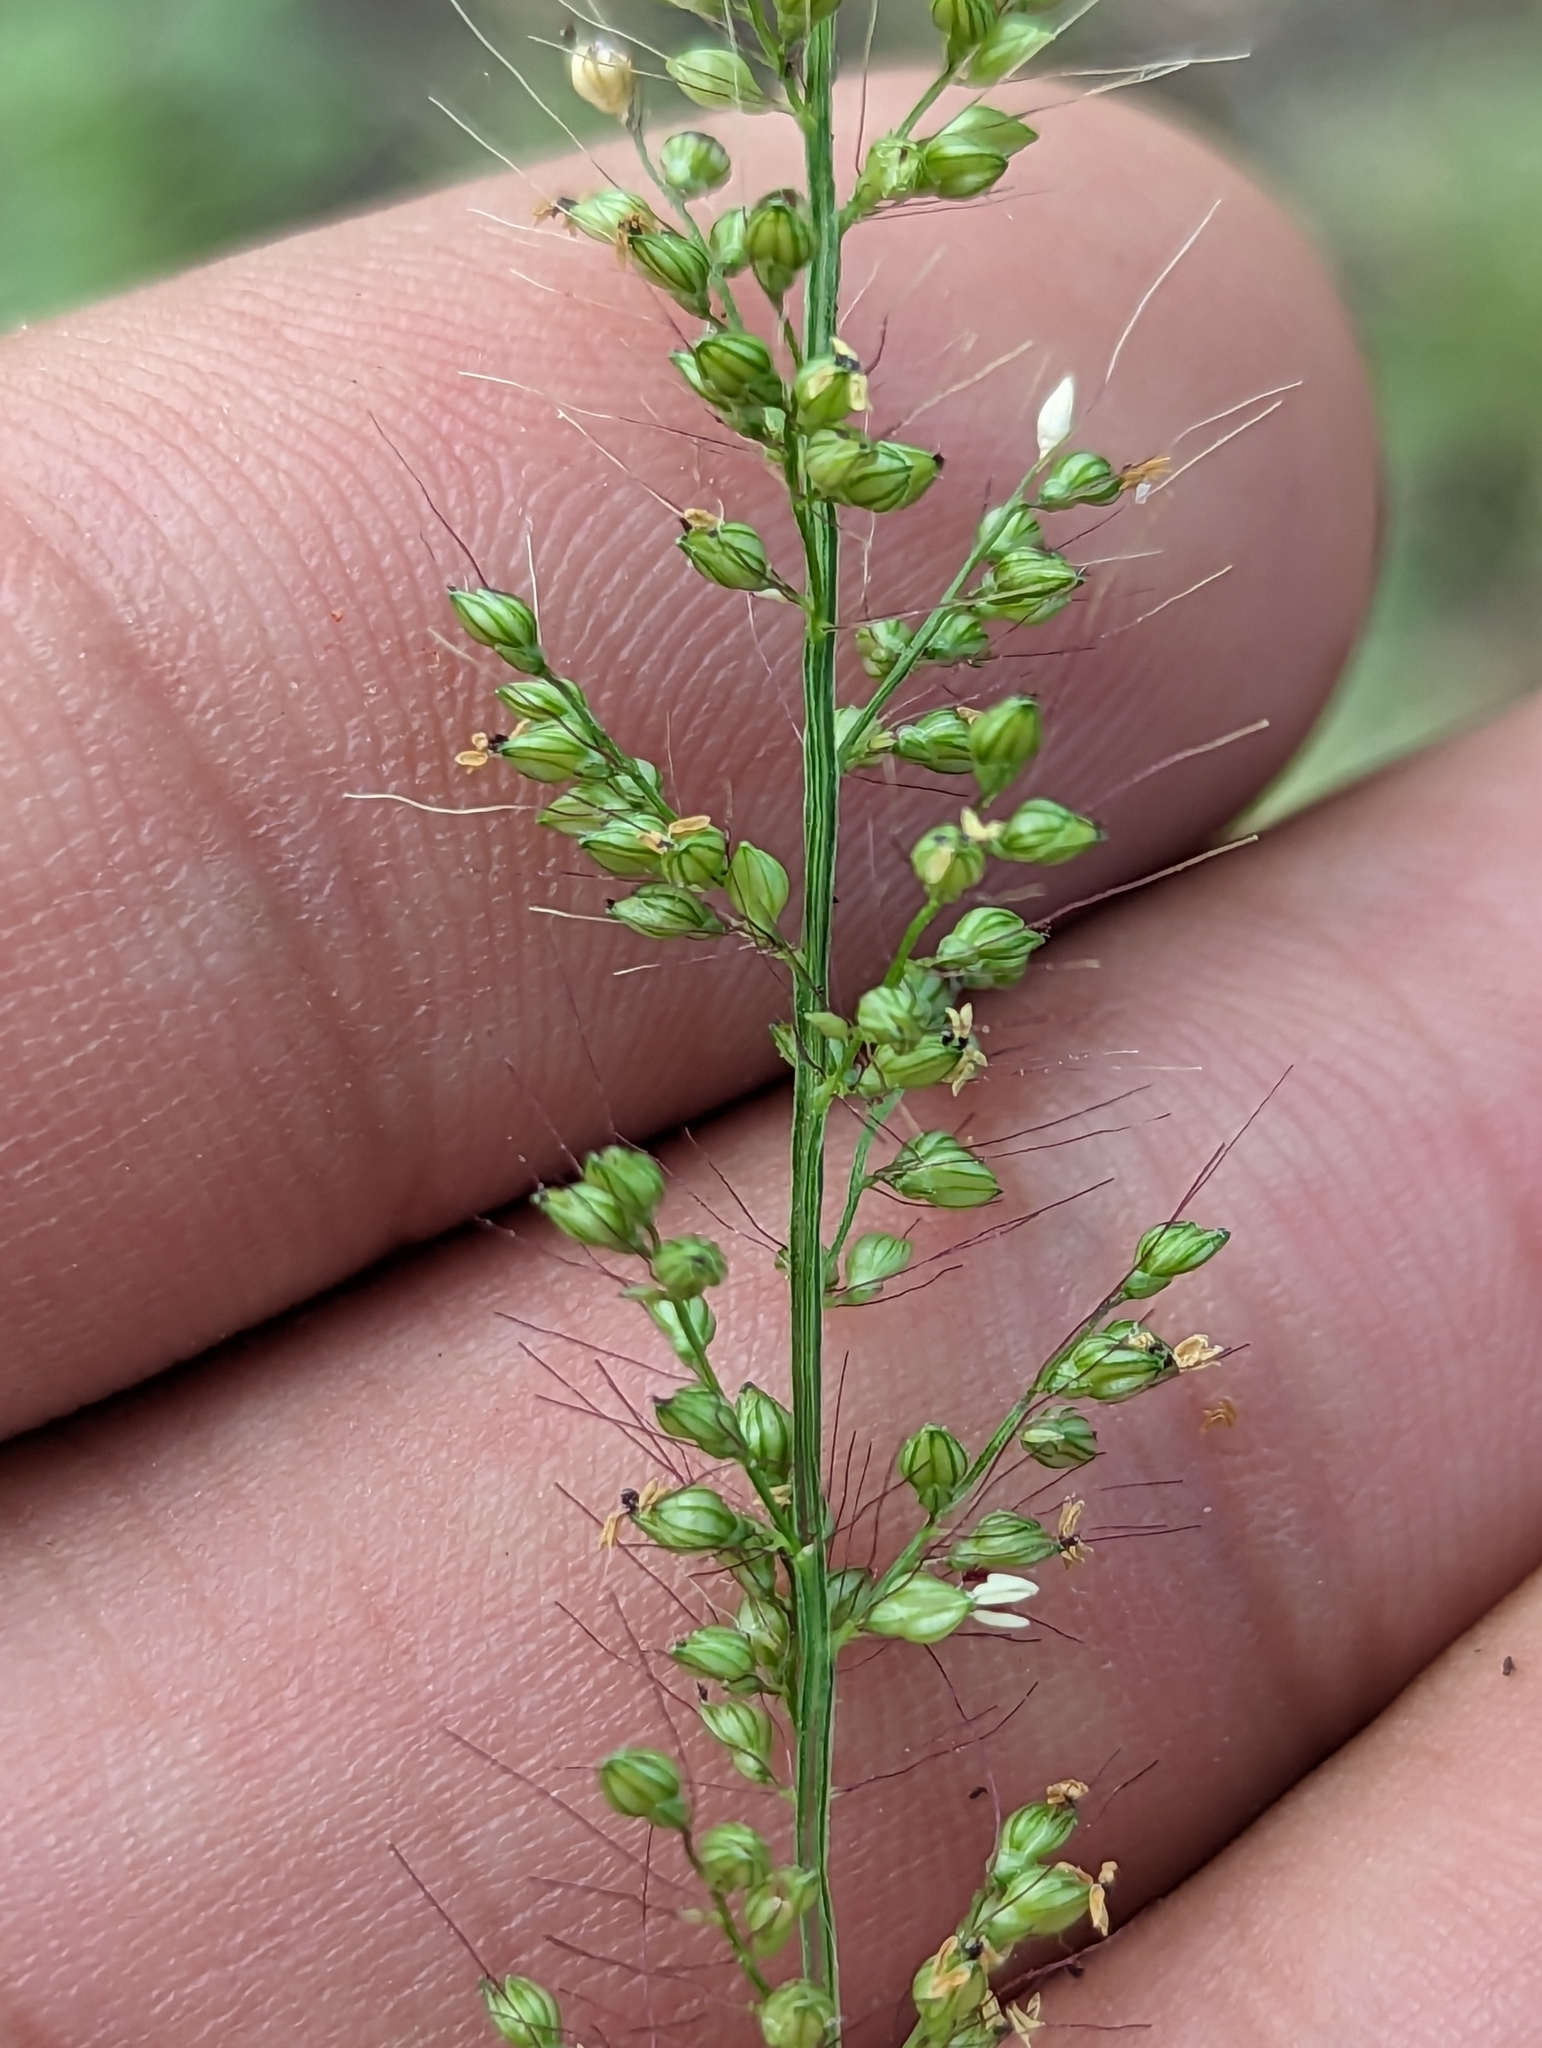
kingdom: Plantae
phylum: Tracheophyta
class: Liliopsida
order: Poales
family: Poaceae
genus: Setaria
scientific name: Setaria liebmannii
